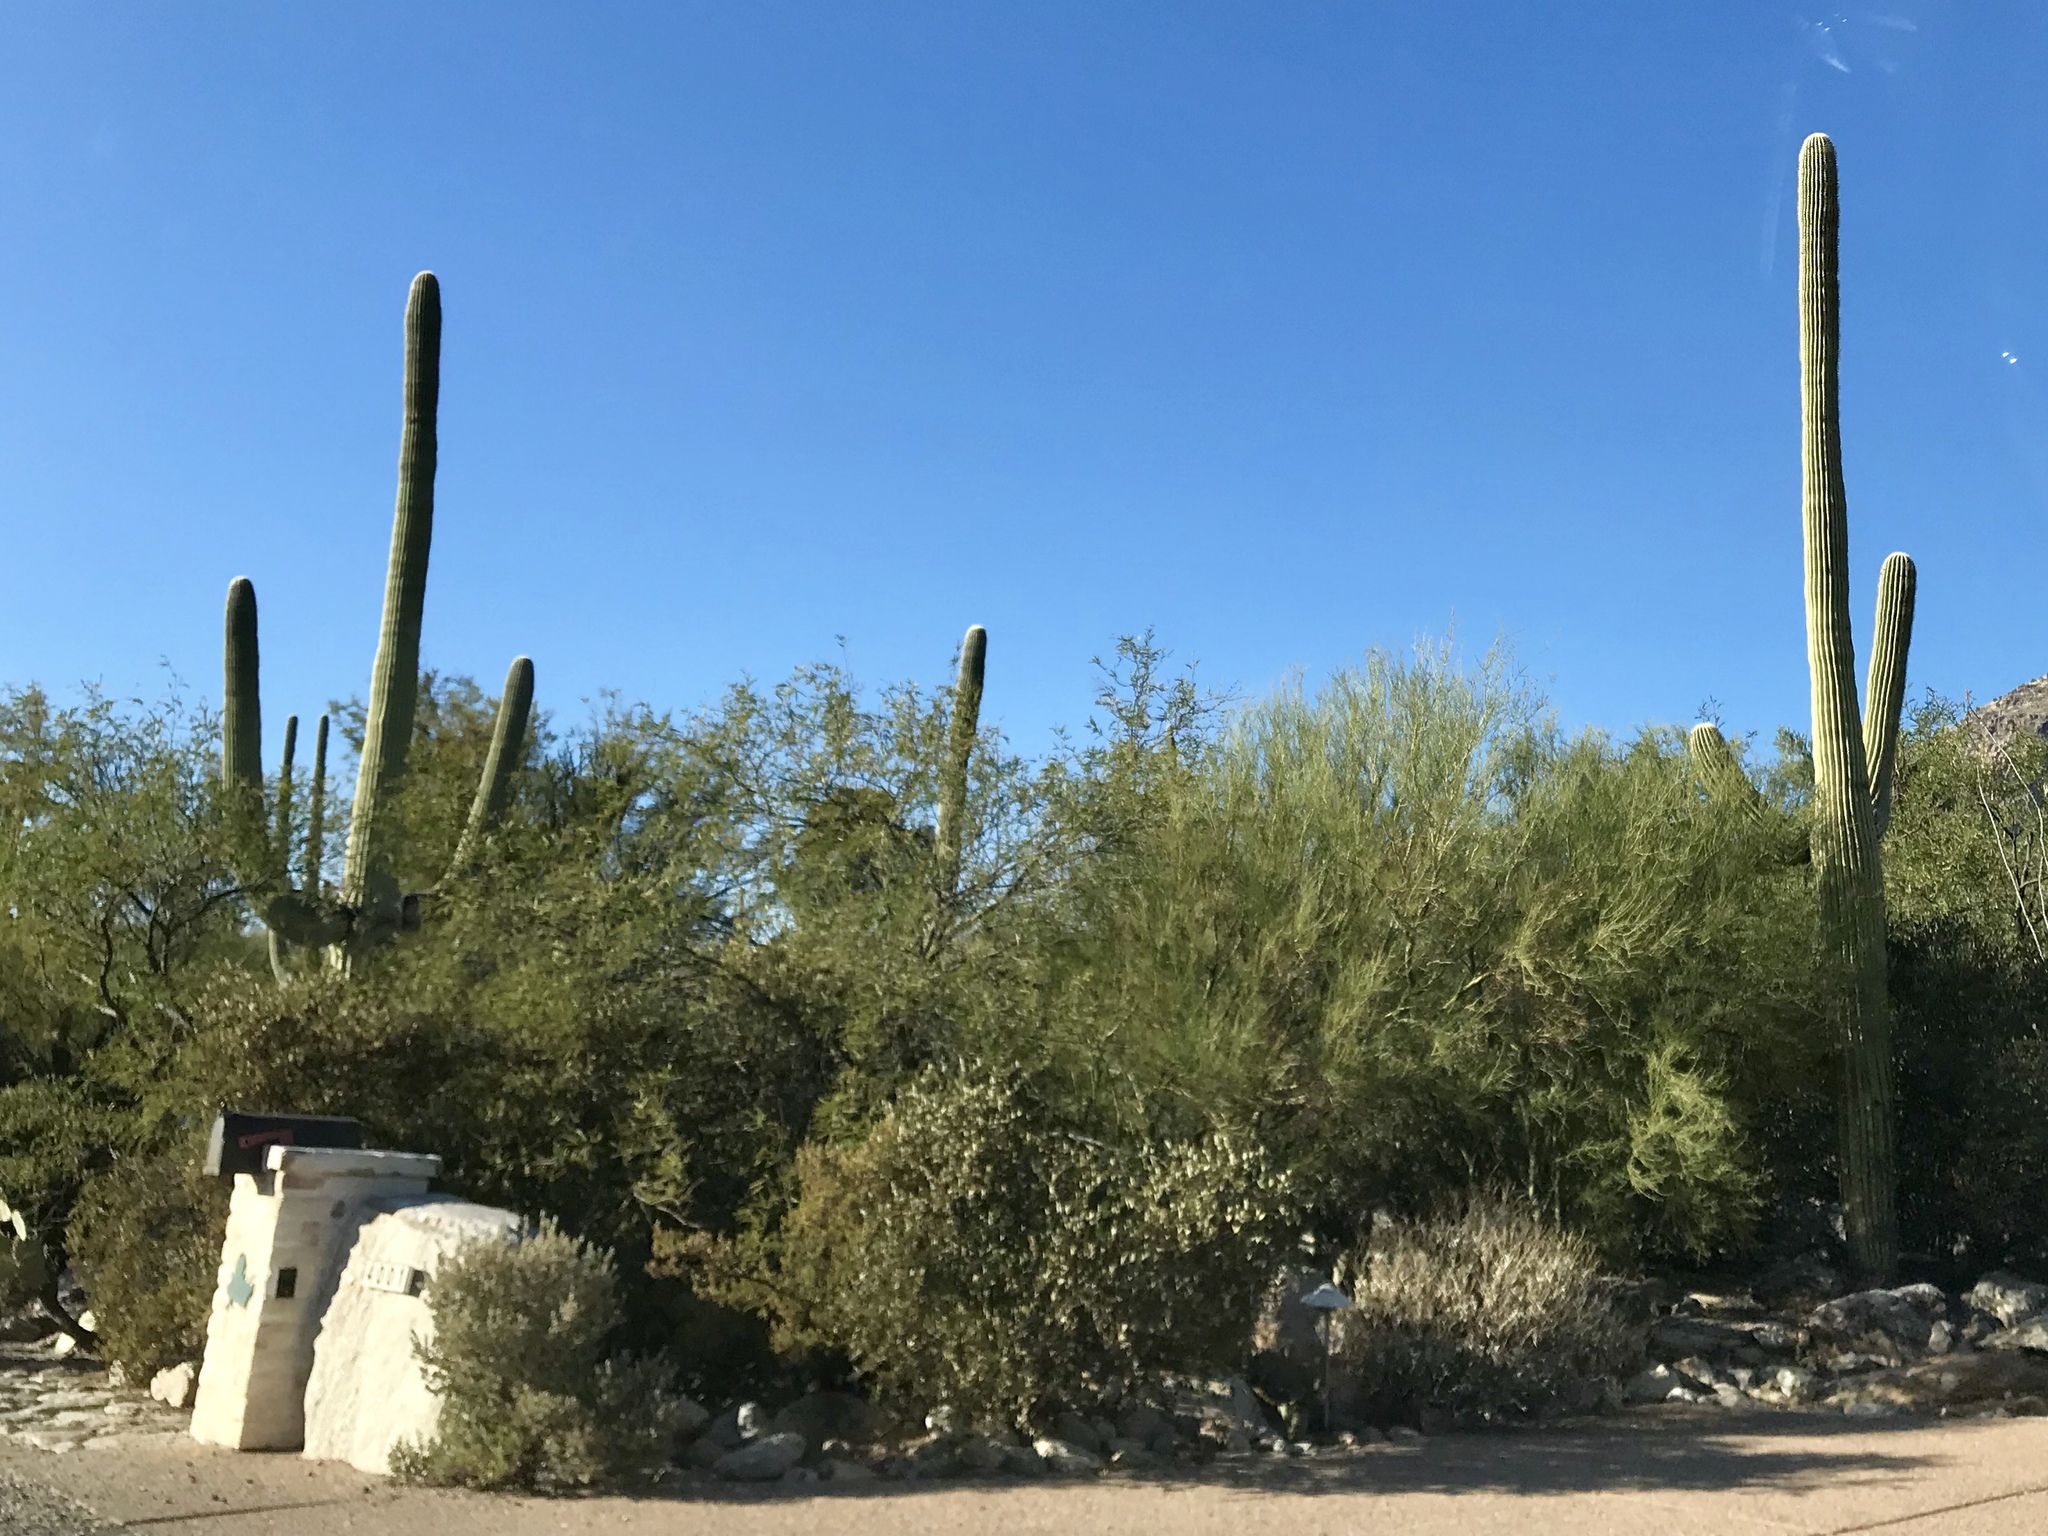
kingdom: Plantae
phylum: Tracheophyta
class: Magnoliopsida
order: Fabales
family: Fabaceae
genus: Parkinsonia
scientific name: Parkinsonia microphylla
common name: Yellow paloverde
